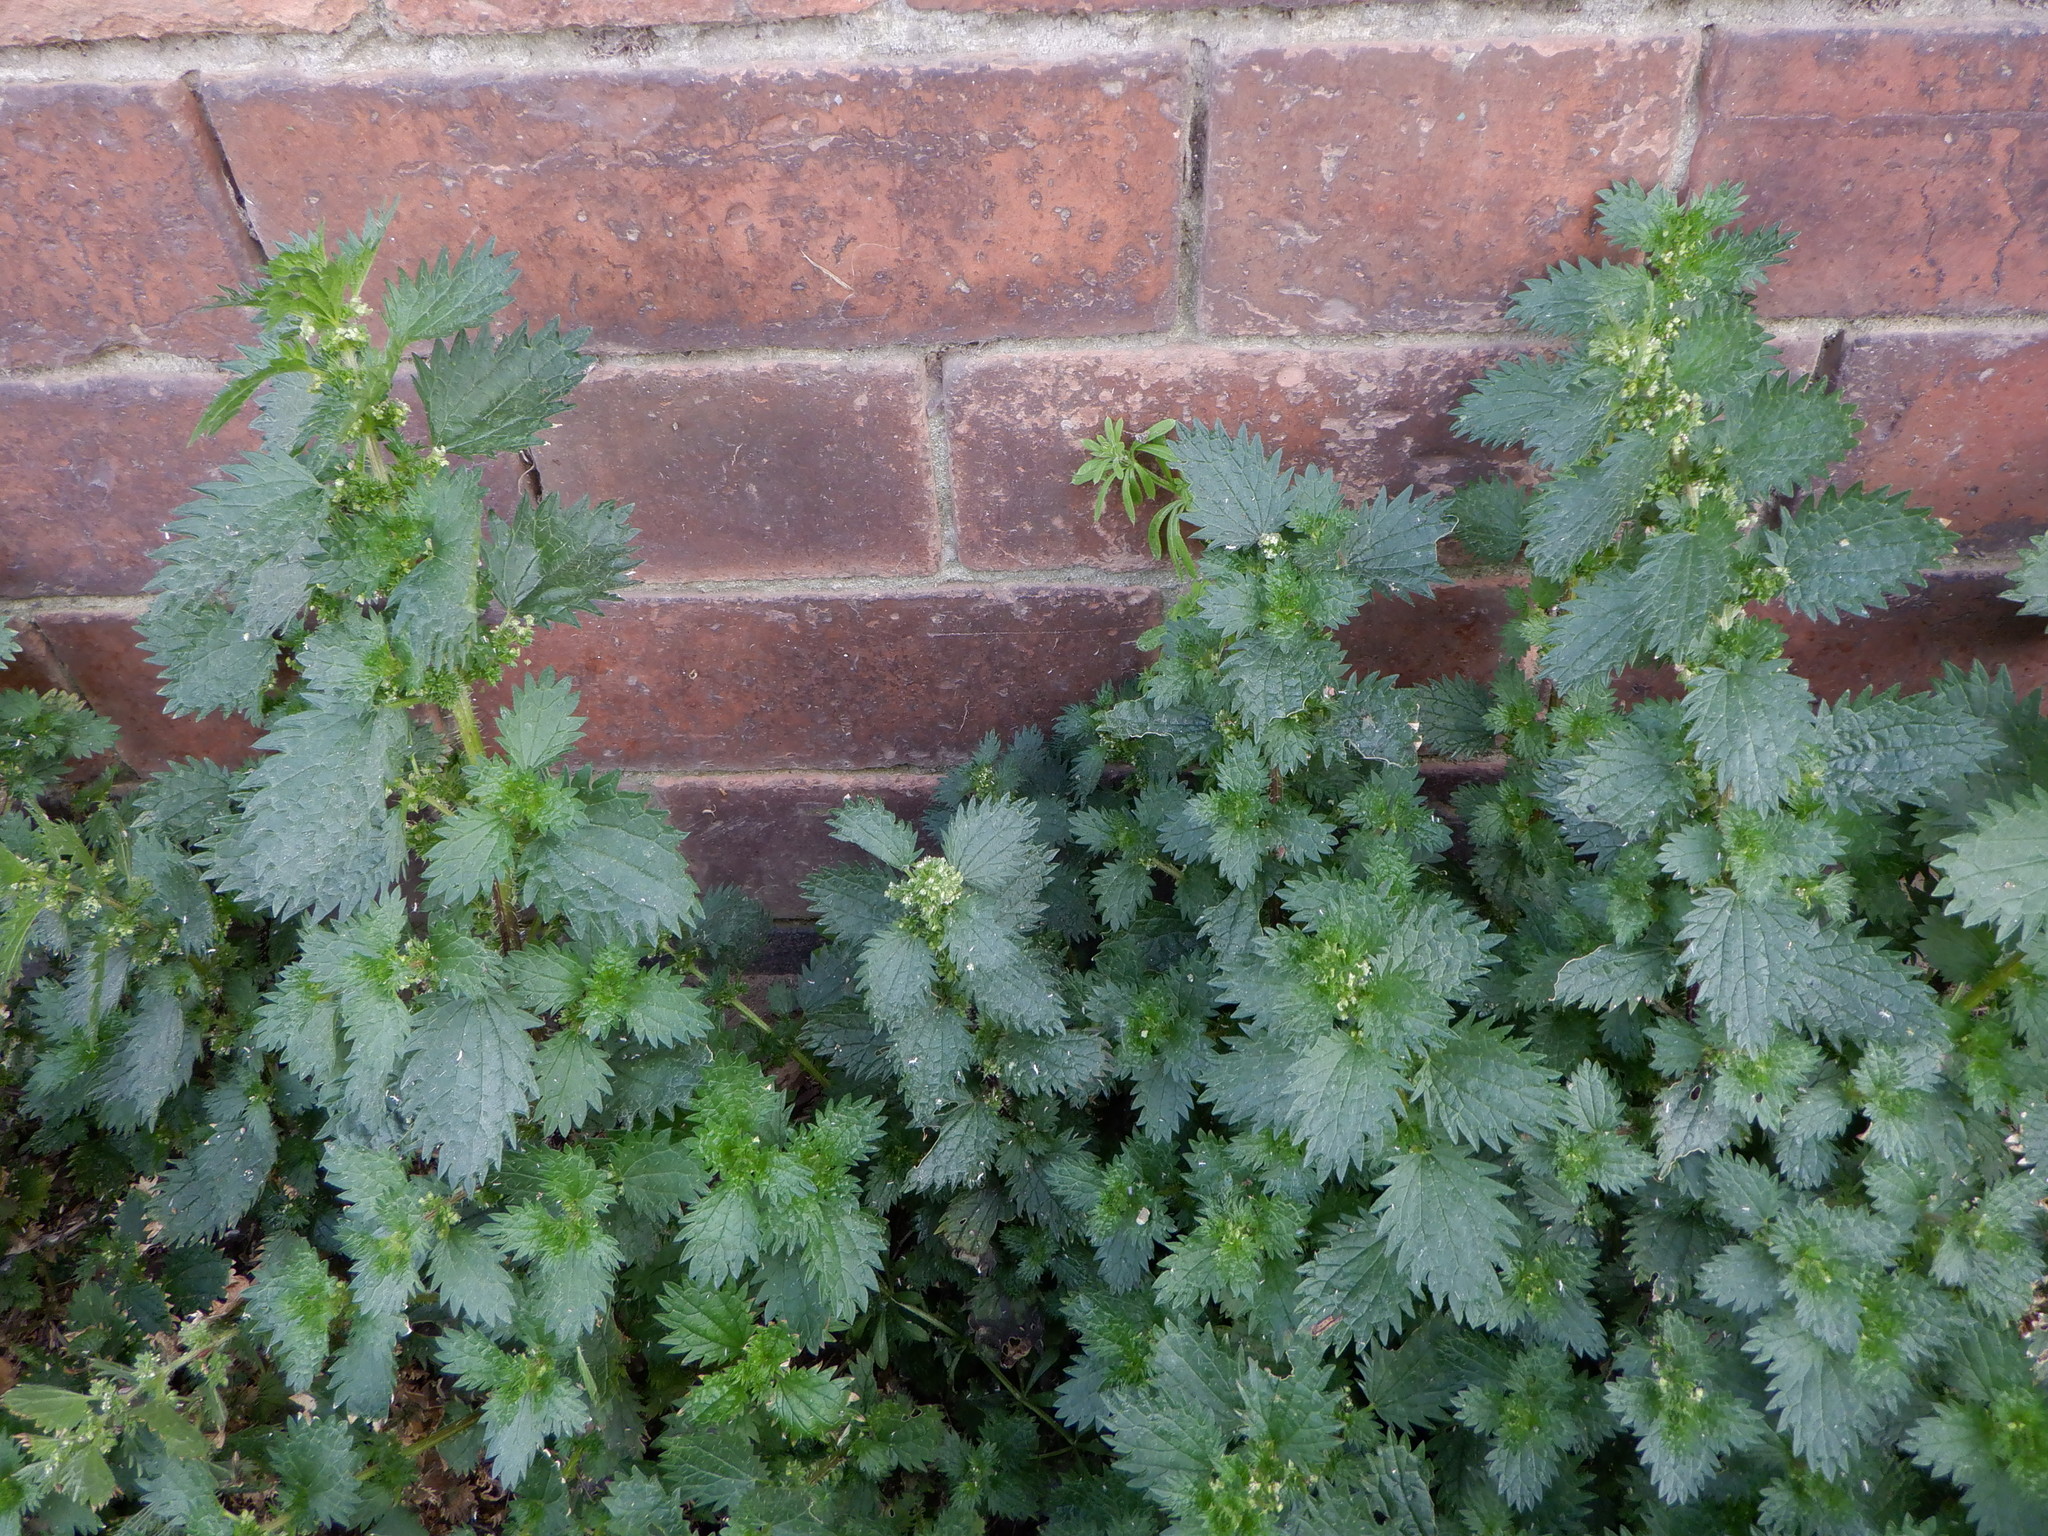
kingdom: Plantae
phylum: Tracheophyta
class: Magnoliopsida
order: Rosales
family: Urticaceae
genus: Urtica
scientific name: Urtica urens
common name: Dwarf nettle
